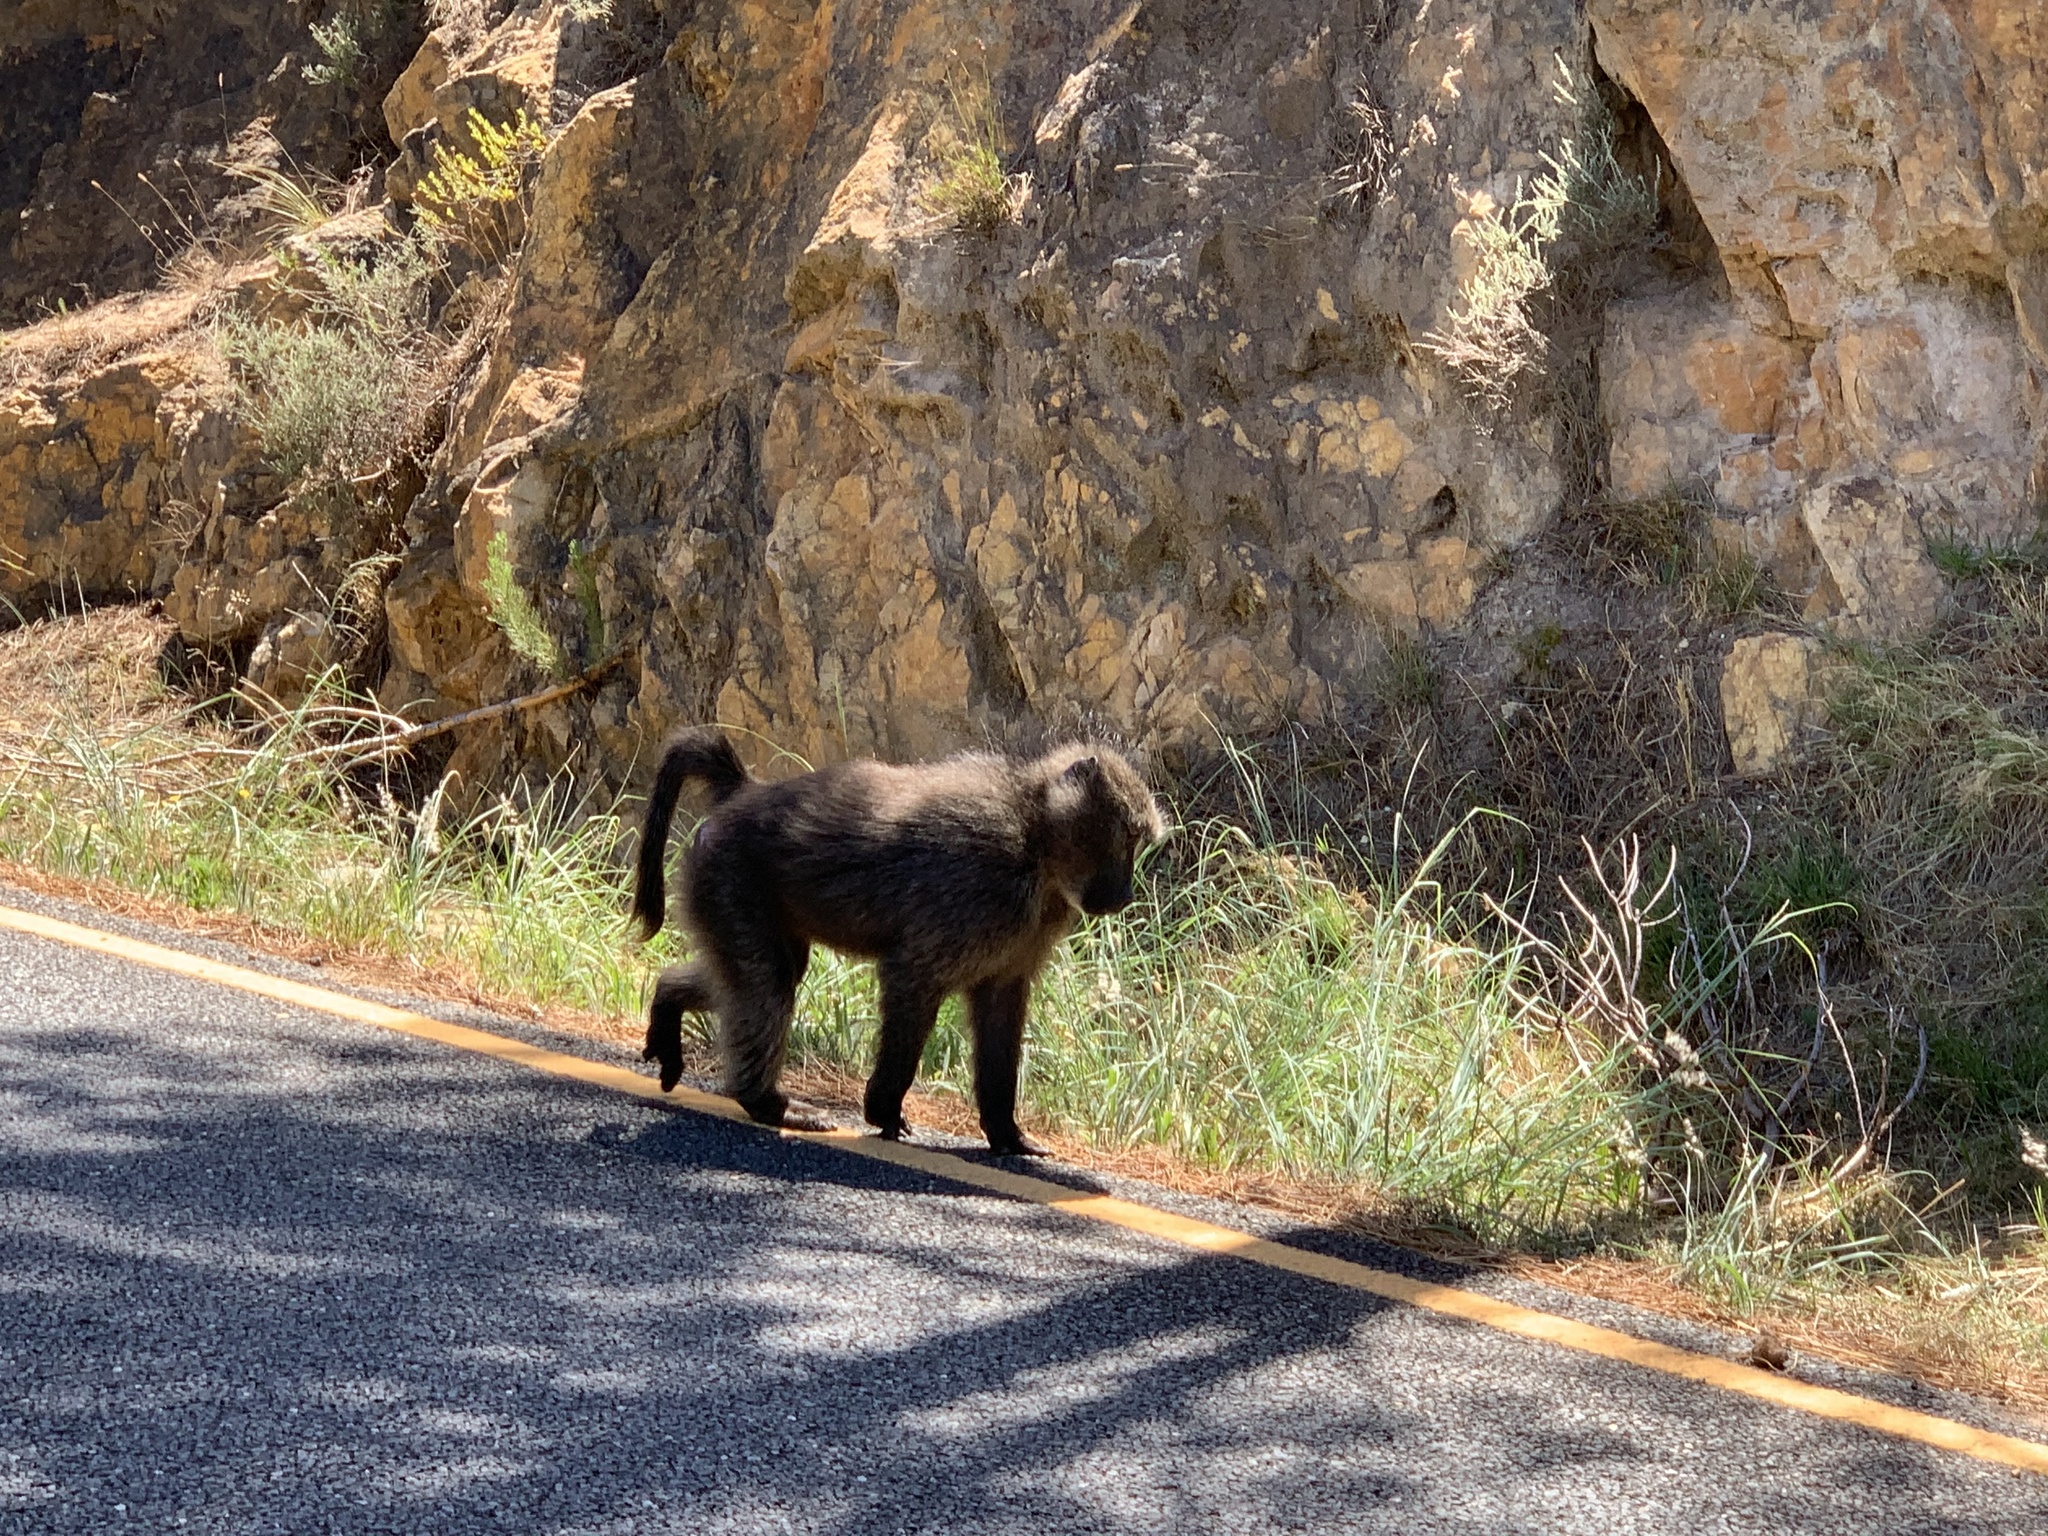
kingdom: Animalia
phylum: Chordata
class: Mammalia
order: Primates
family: Cercopithecidae
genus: Papio
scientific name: Papio ursinus
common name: Chacma baboon
